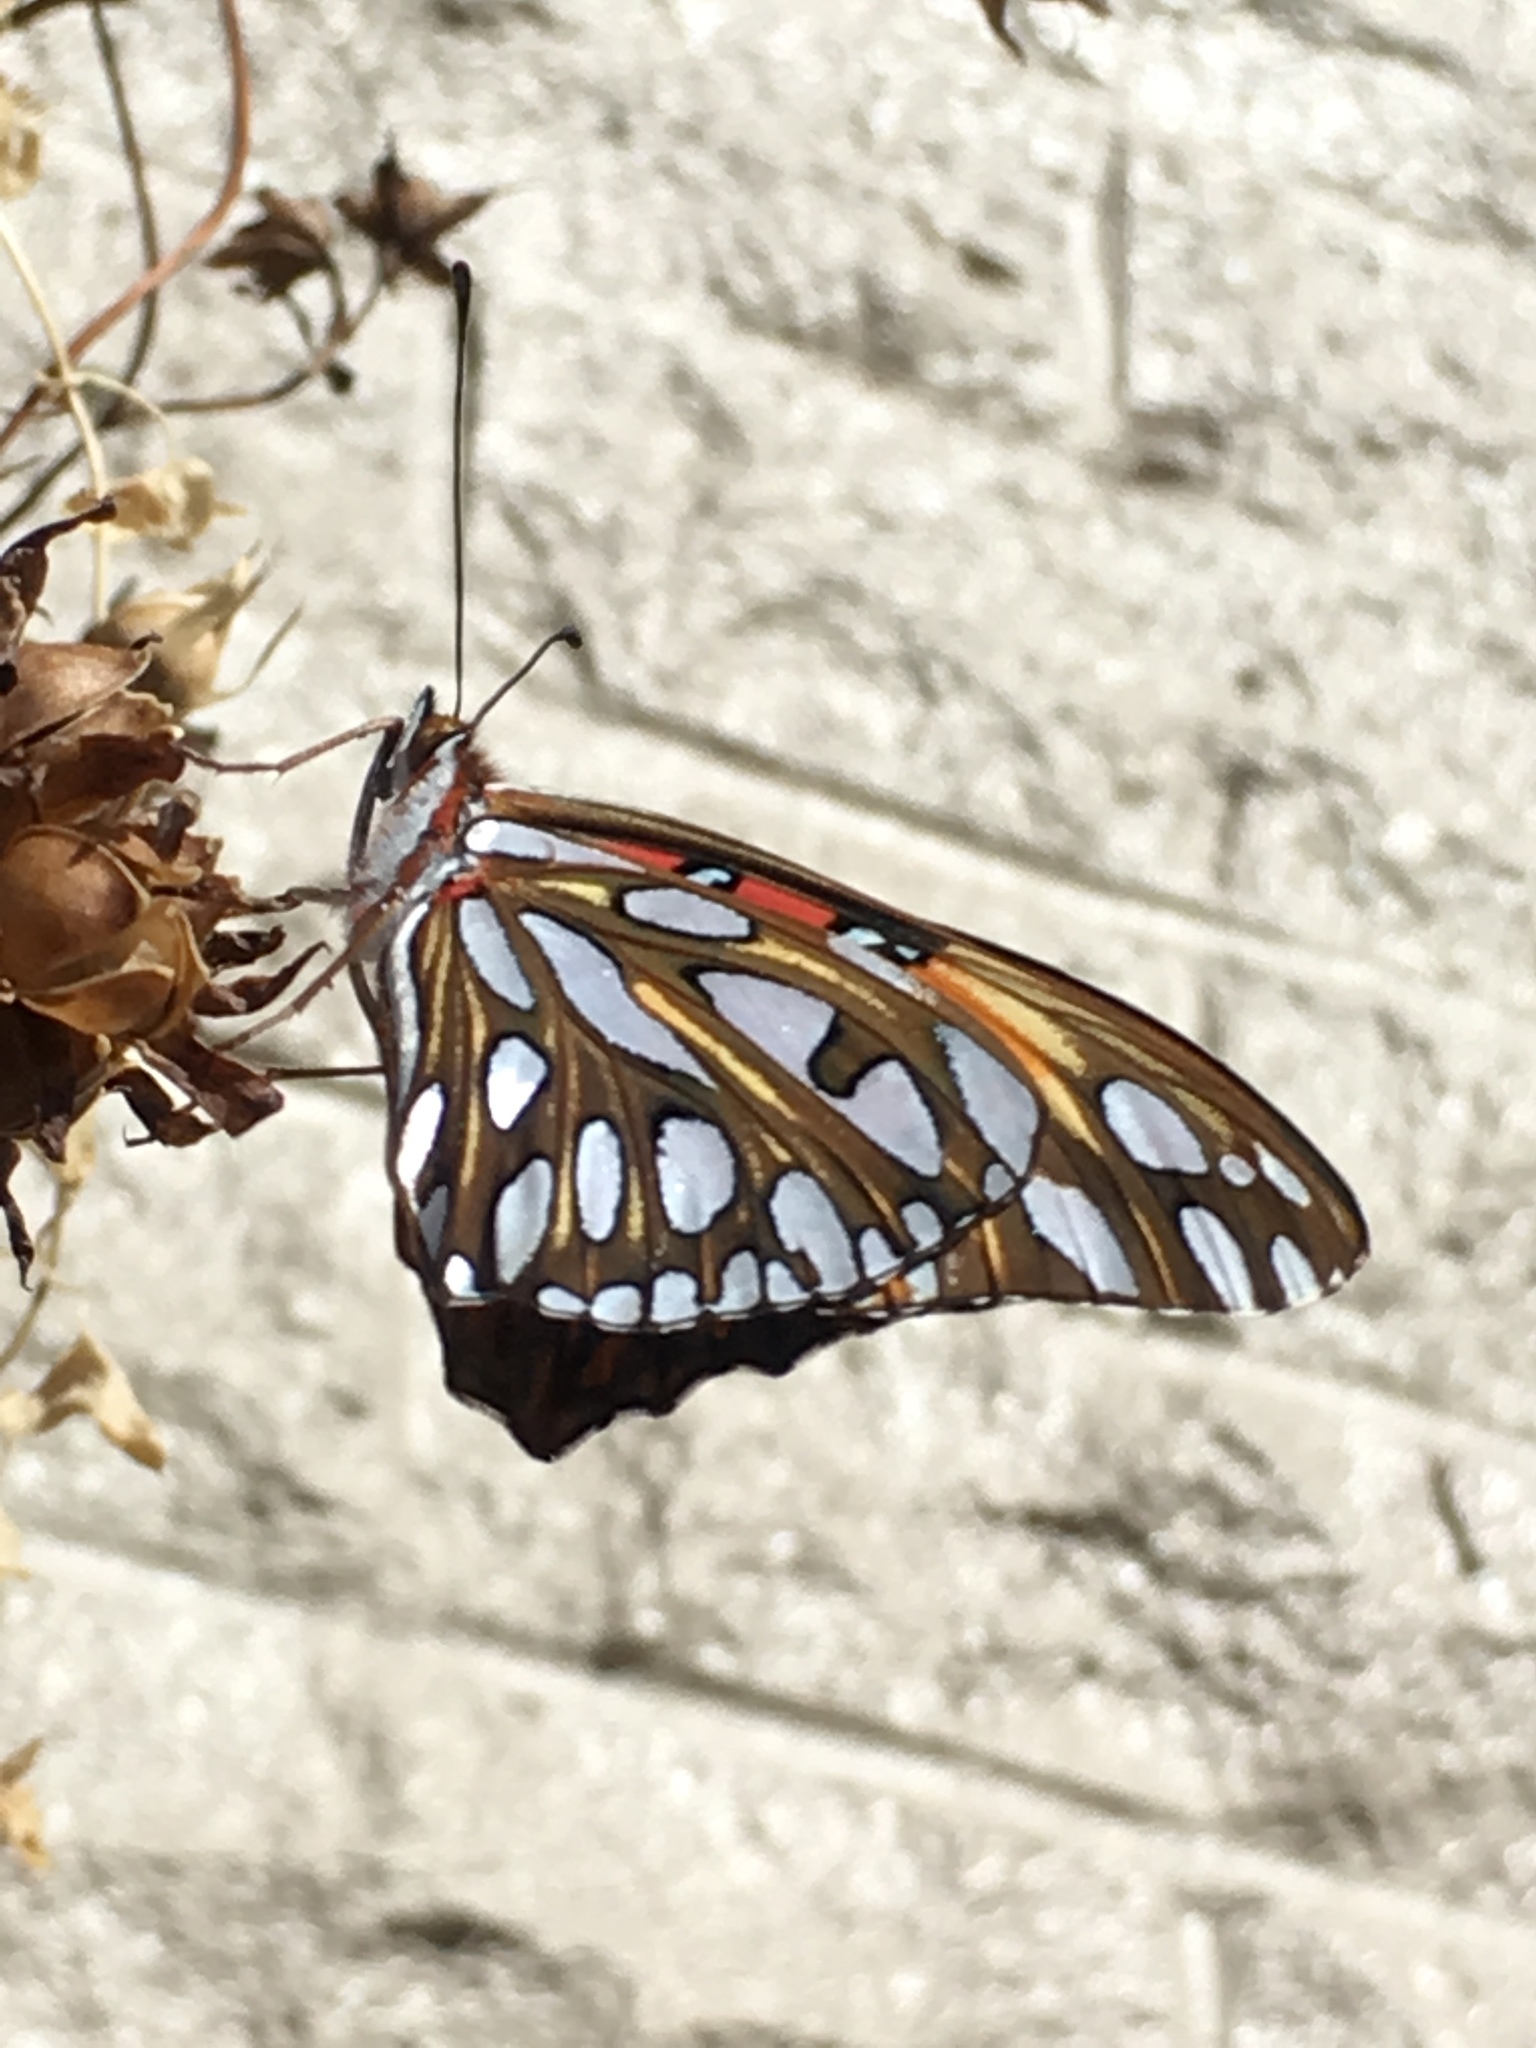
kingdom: Animalia
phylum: Arthropoda
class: Insecta
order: Lepidoptera
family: Nymphalidae
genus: Dione
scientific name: Dione vanillae
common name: Gulf fritillary
